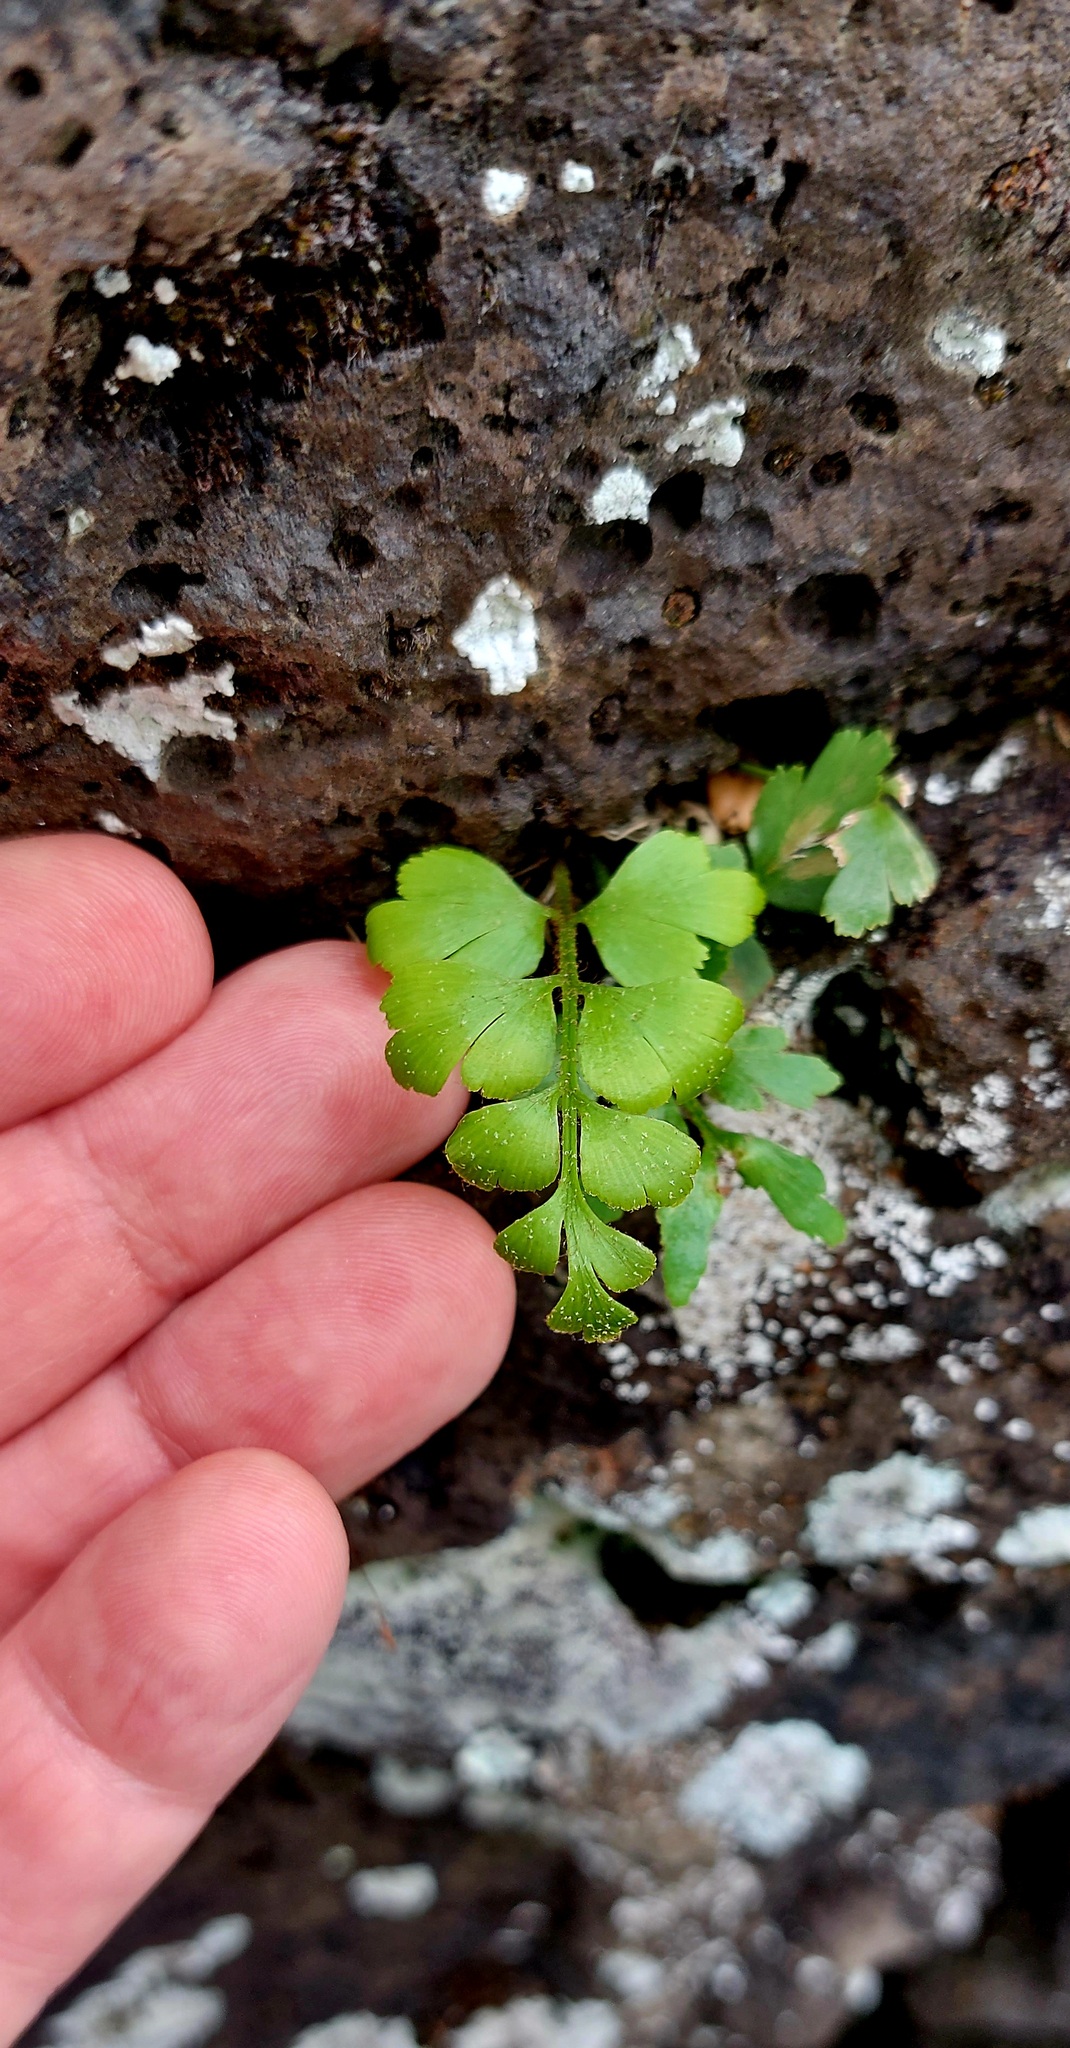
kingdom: Plantae
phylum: Tracheophyta
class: Polypodiopsida
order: Polypodiales
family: Aspleniaceae
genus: Asplenium
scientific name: Asplenium aethiopicum
